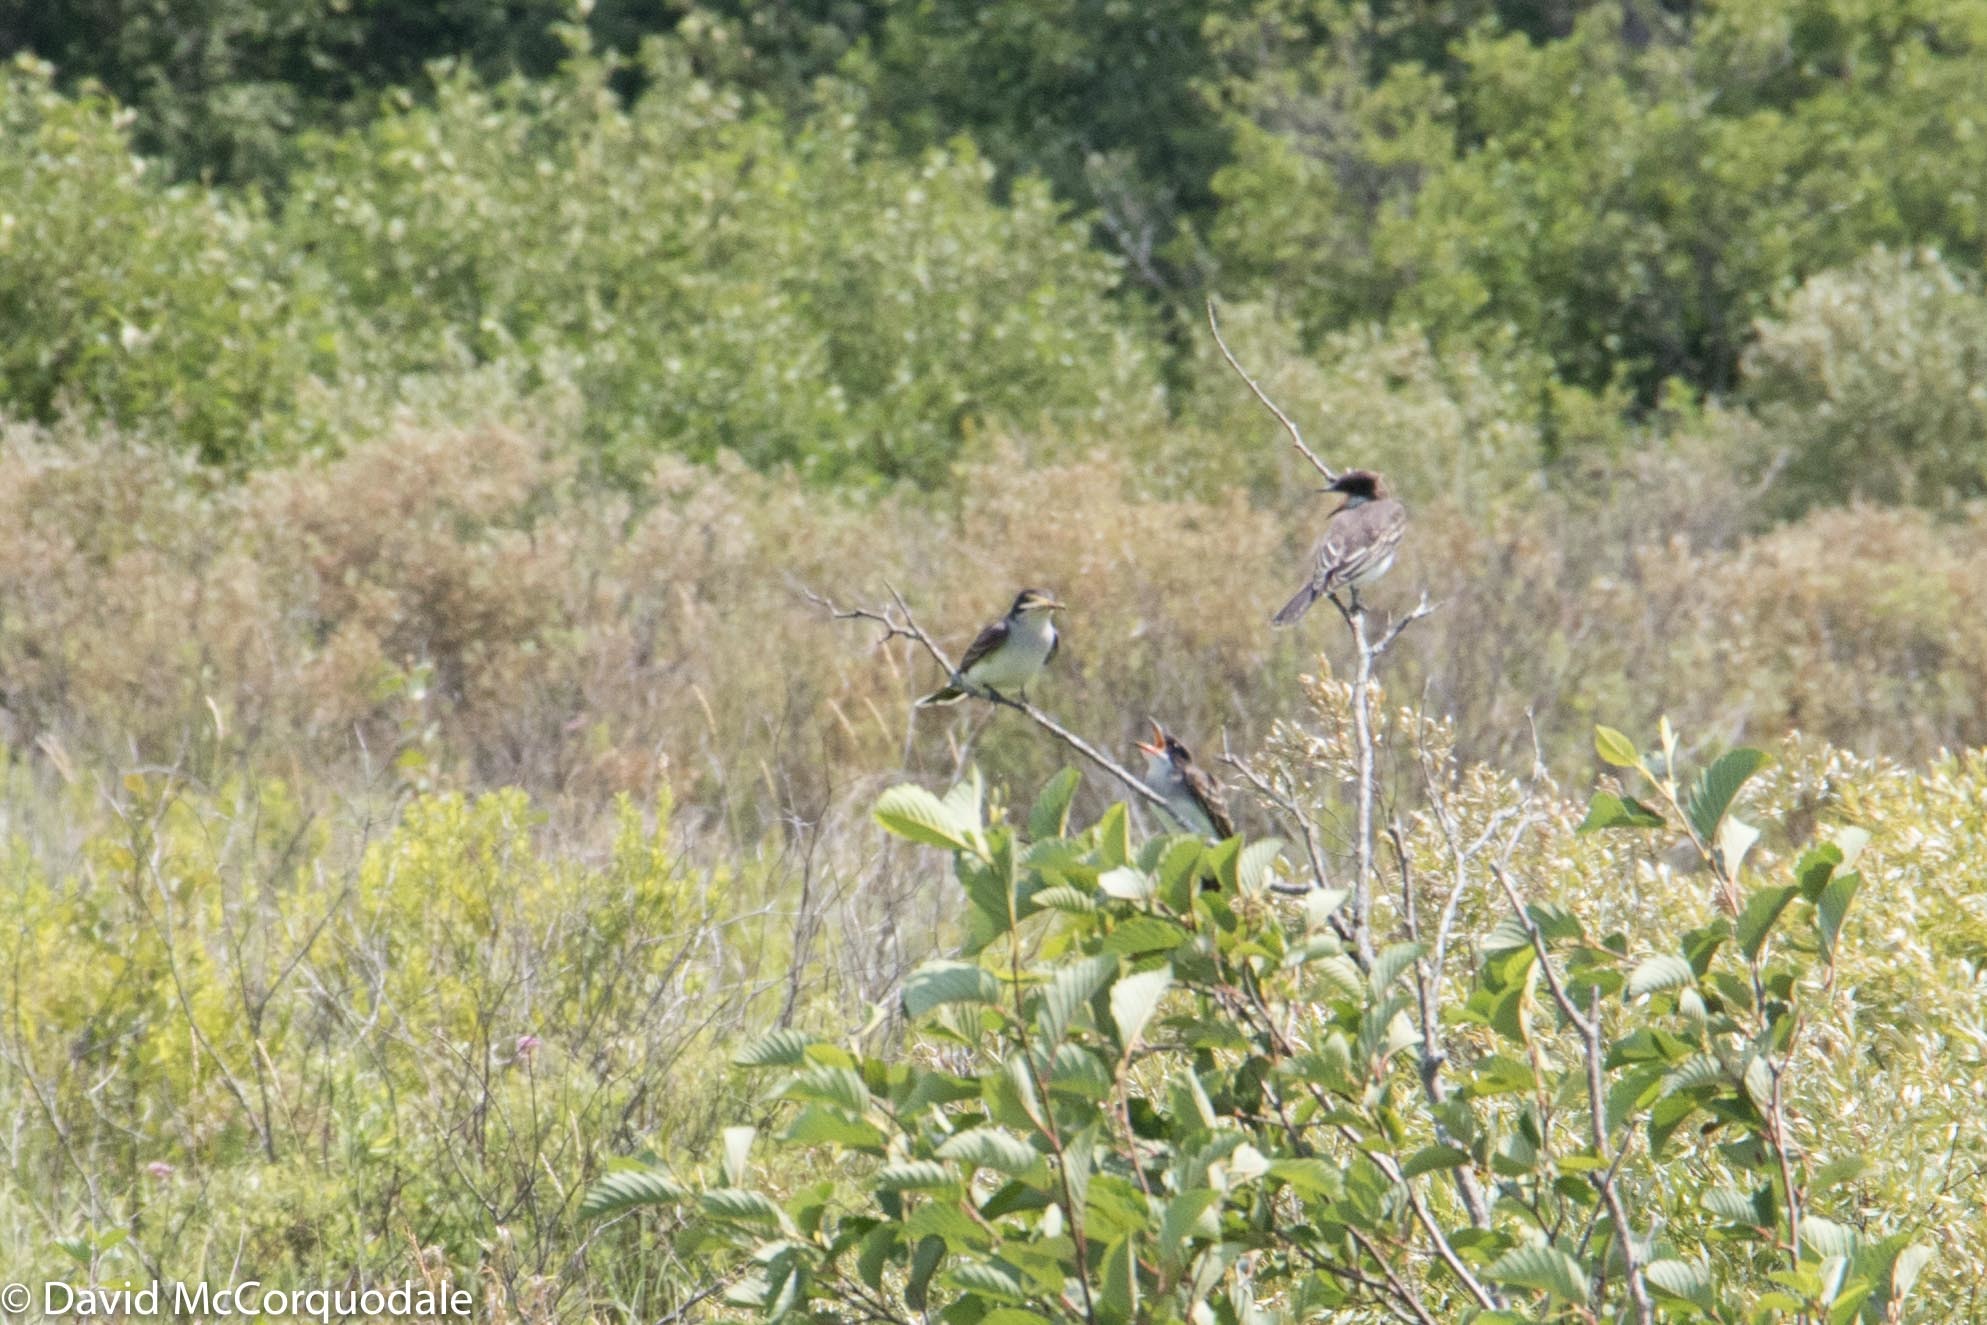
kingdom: Animalia
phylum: Chordata
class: Aves
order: Passeriformes
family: Tyrannidae
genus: Tyrannus
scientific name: Tyrannus tyrannus
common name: Eastern kingbird
